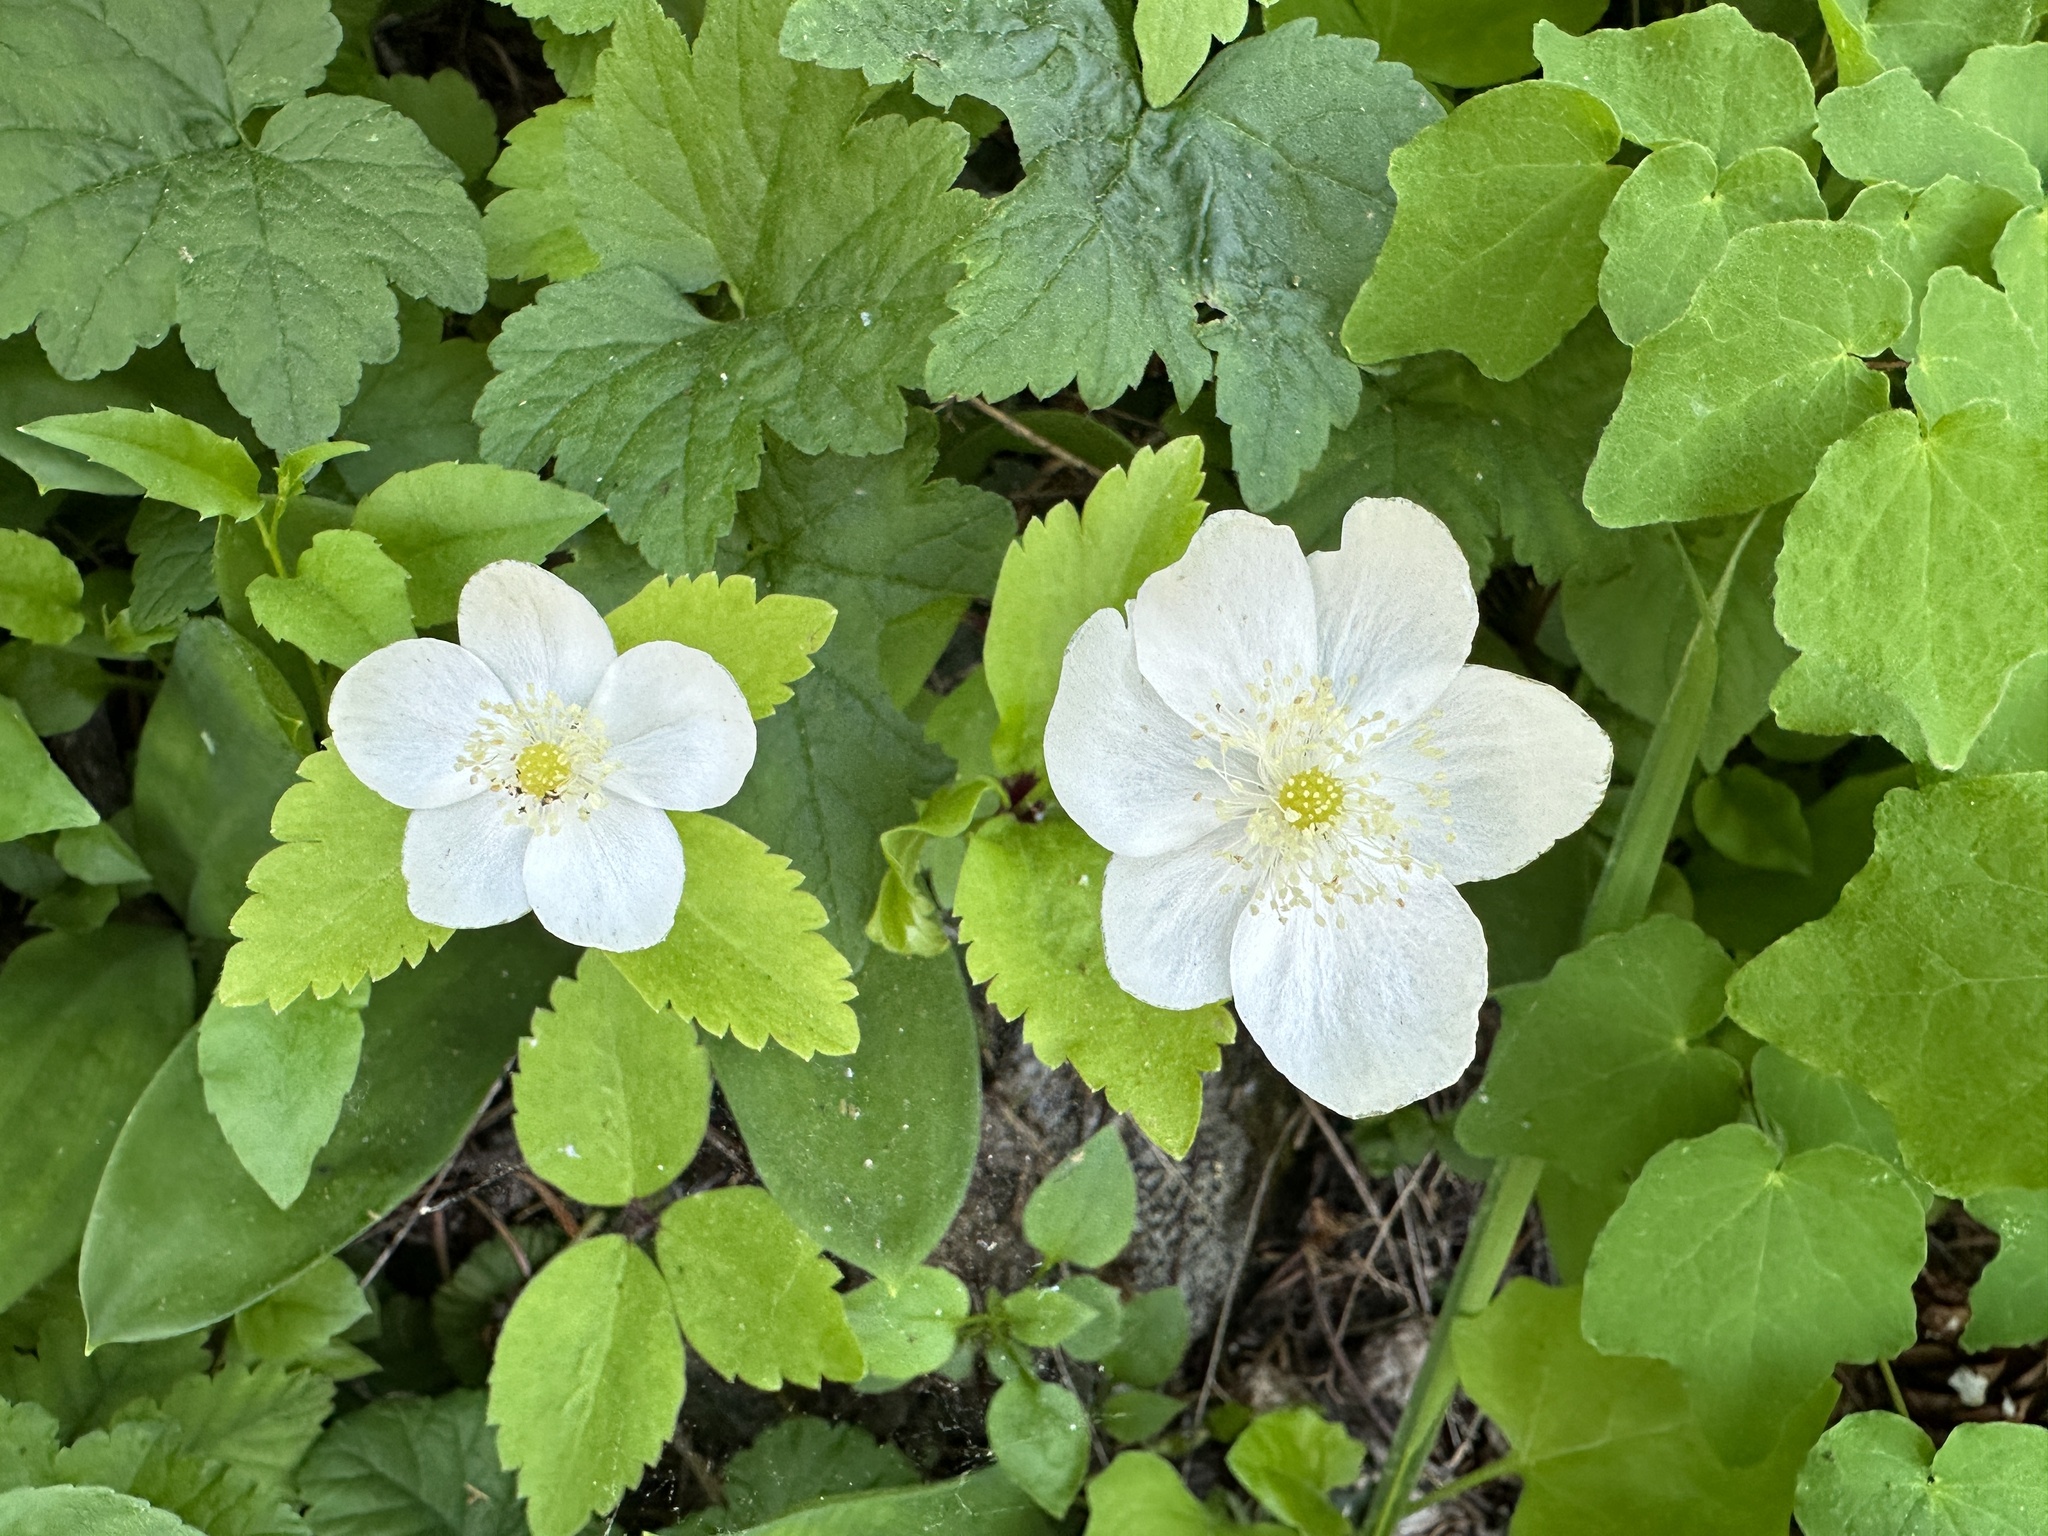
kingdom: Plantae
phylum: Tracheophyta
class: Magnoliopsida
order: Ranunculales
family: Ranunculaceae
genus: Anemonastrum
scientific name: Anemonastrum deltoideum
